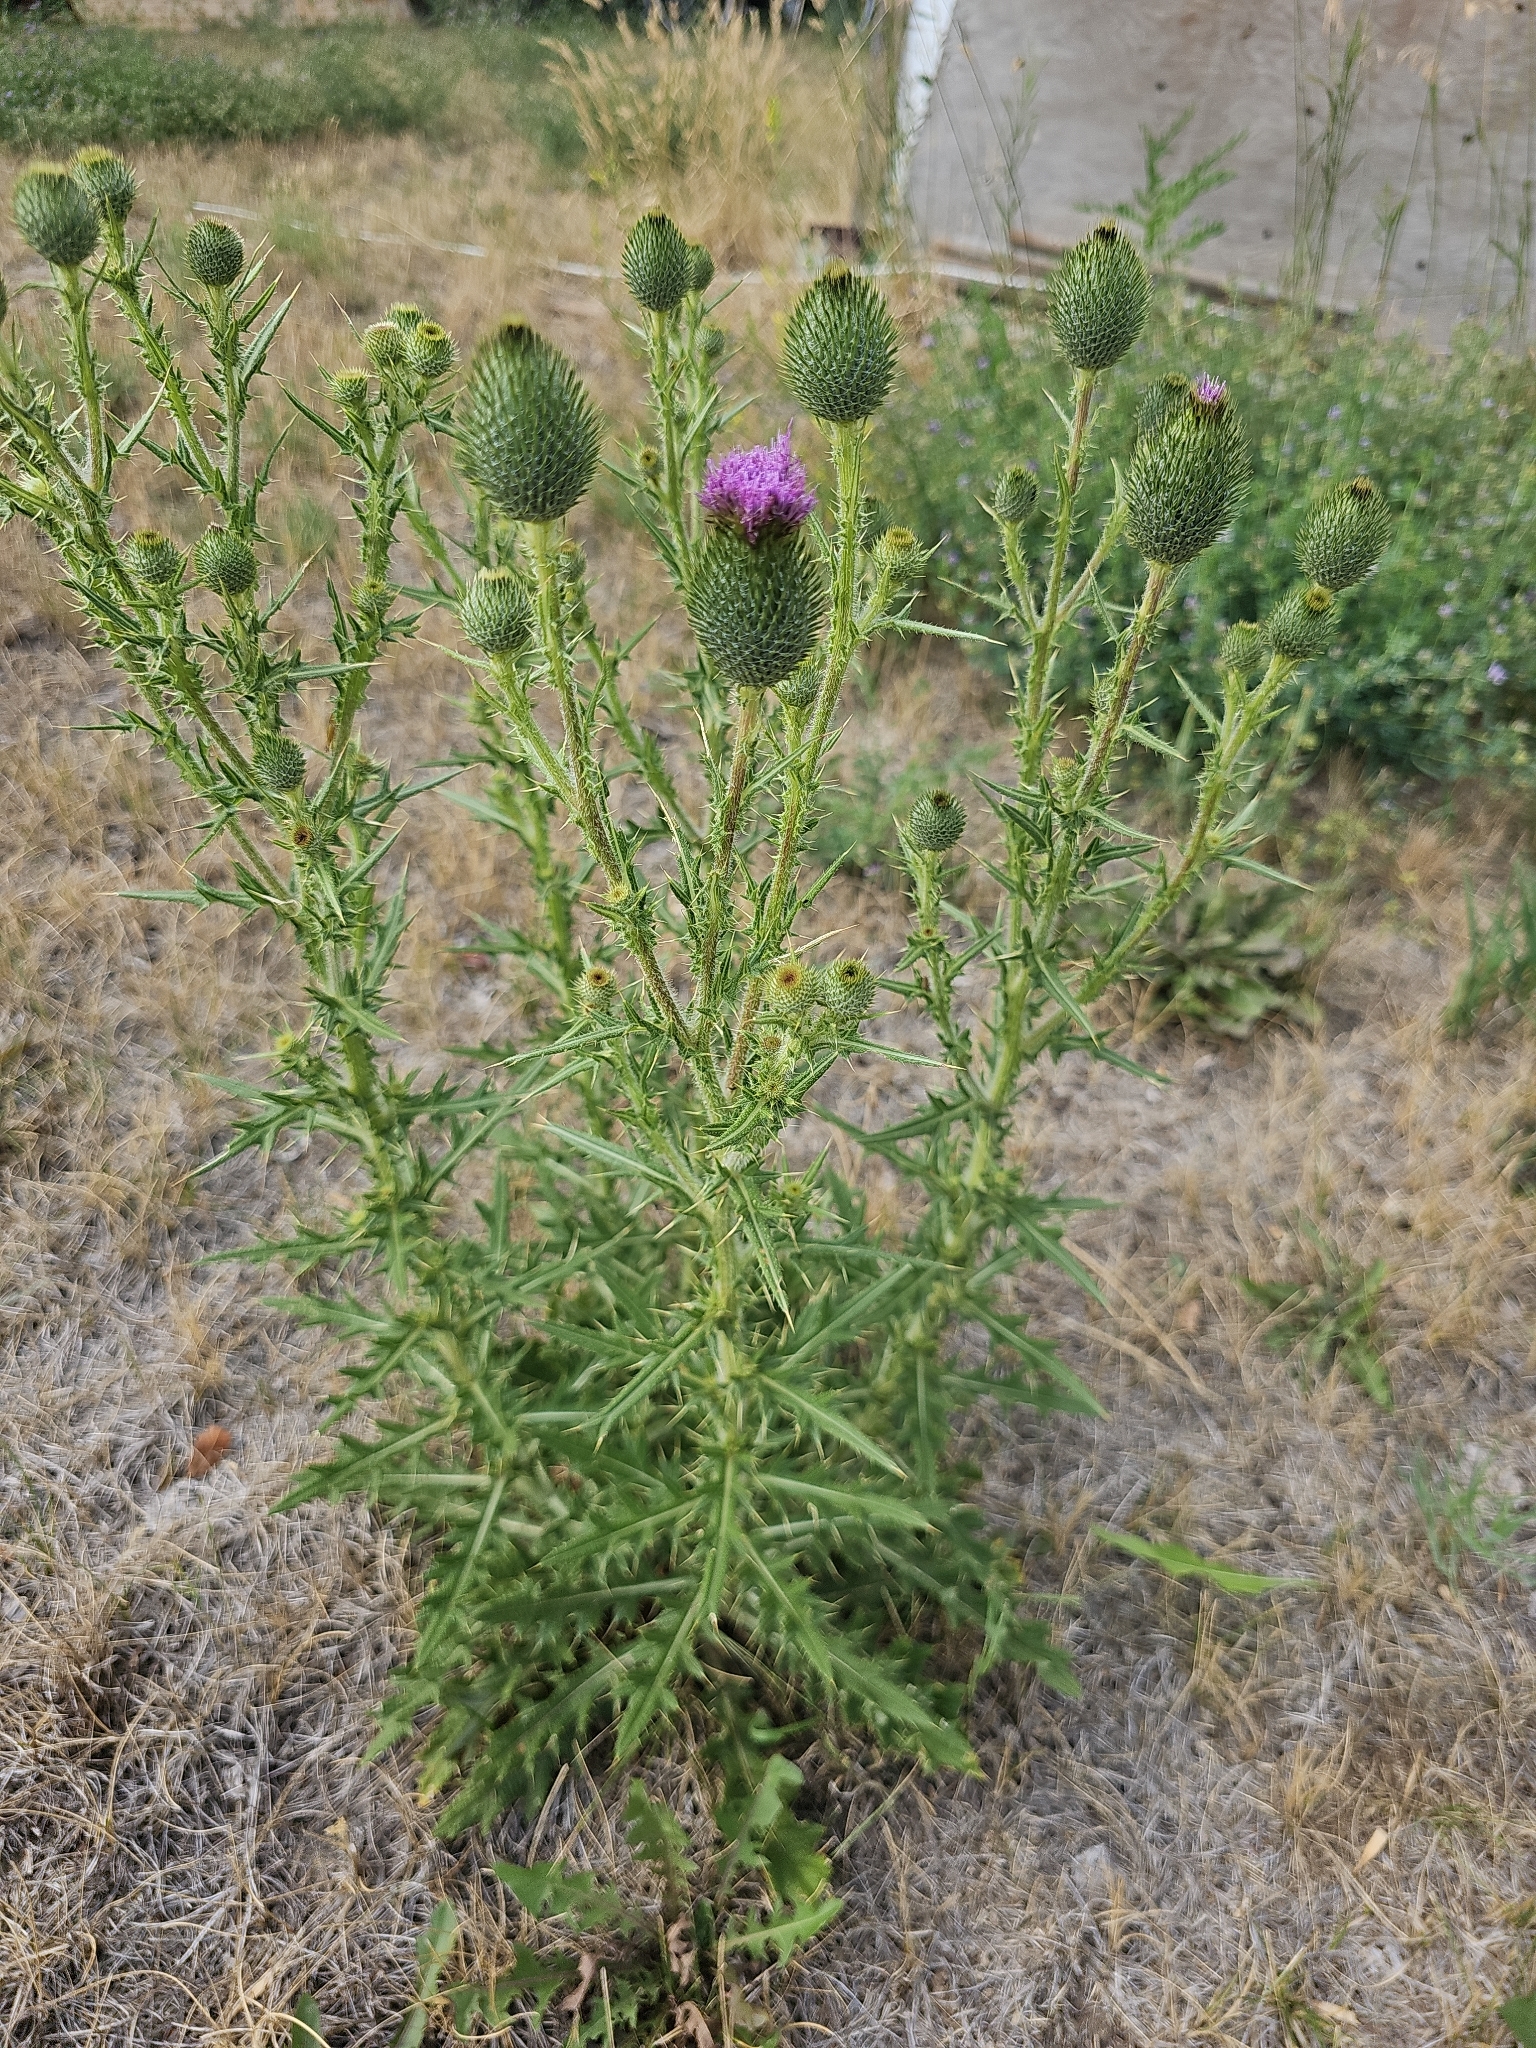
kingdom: Plantae
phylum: Tracheophyta
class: Magnoliopsida
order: Asterales
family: Asteraceae
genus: Cirsium
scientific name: Cirsium vulgare
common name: Bull thistle
